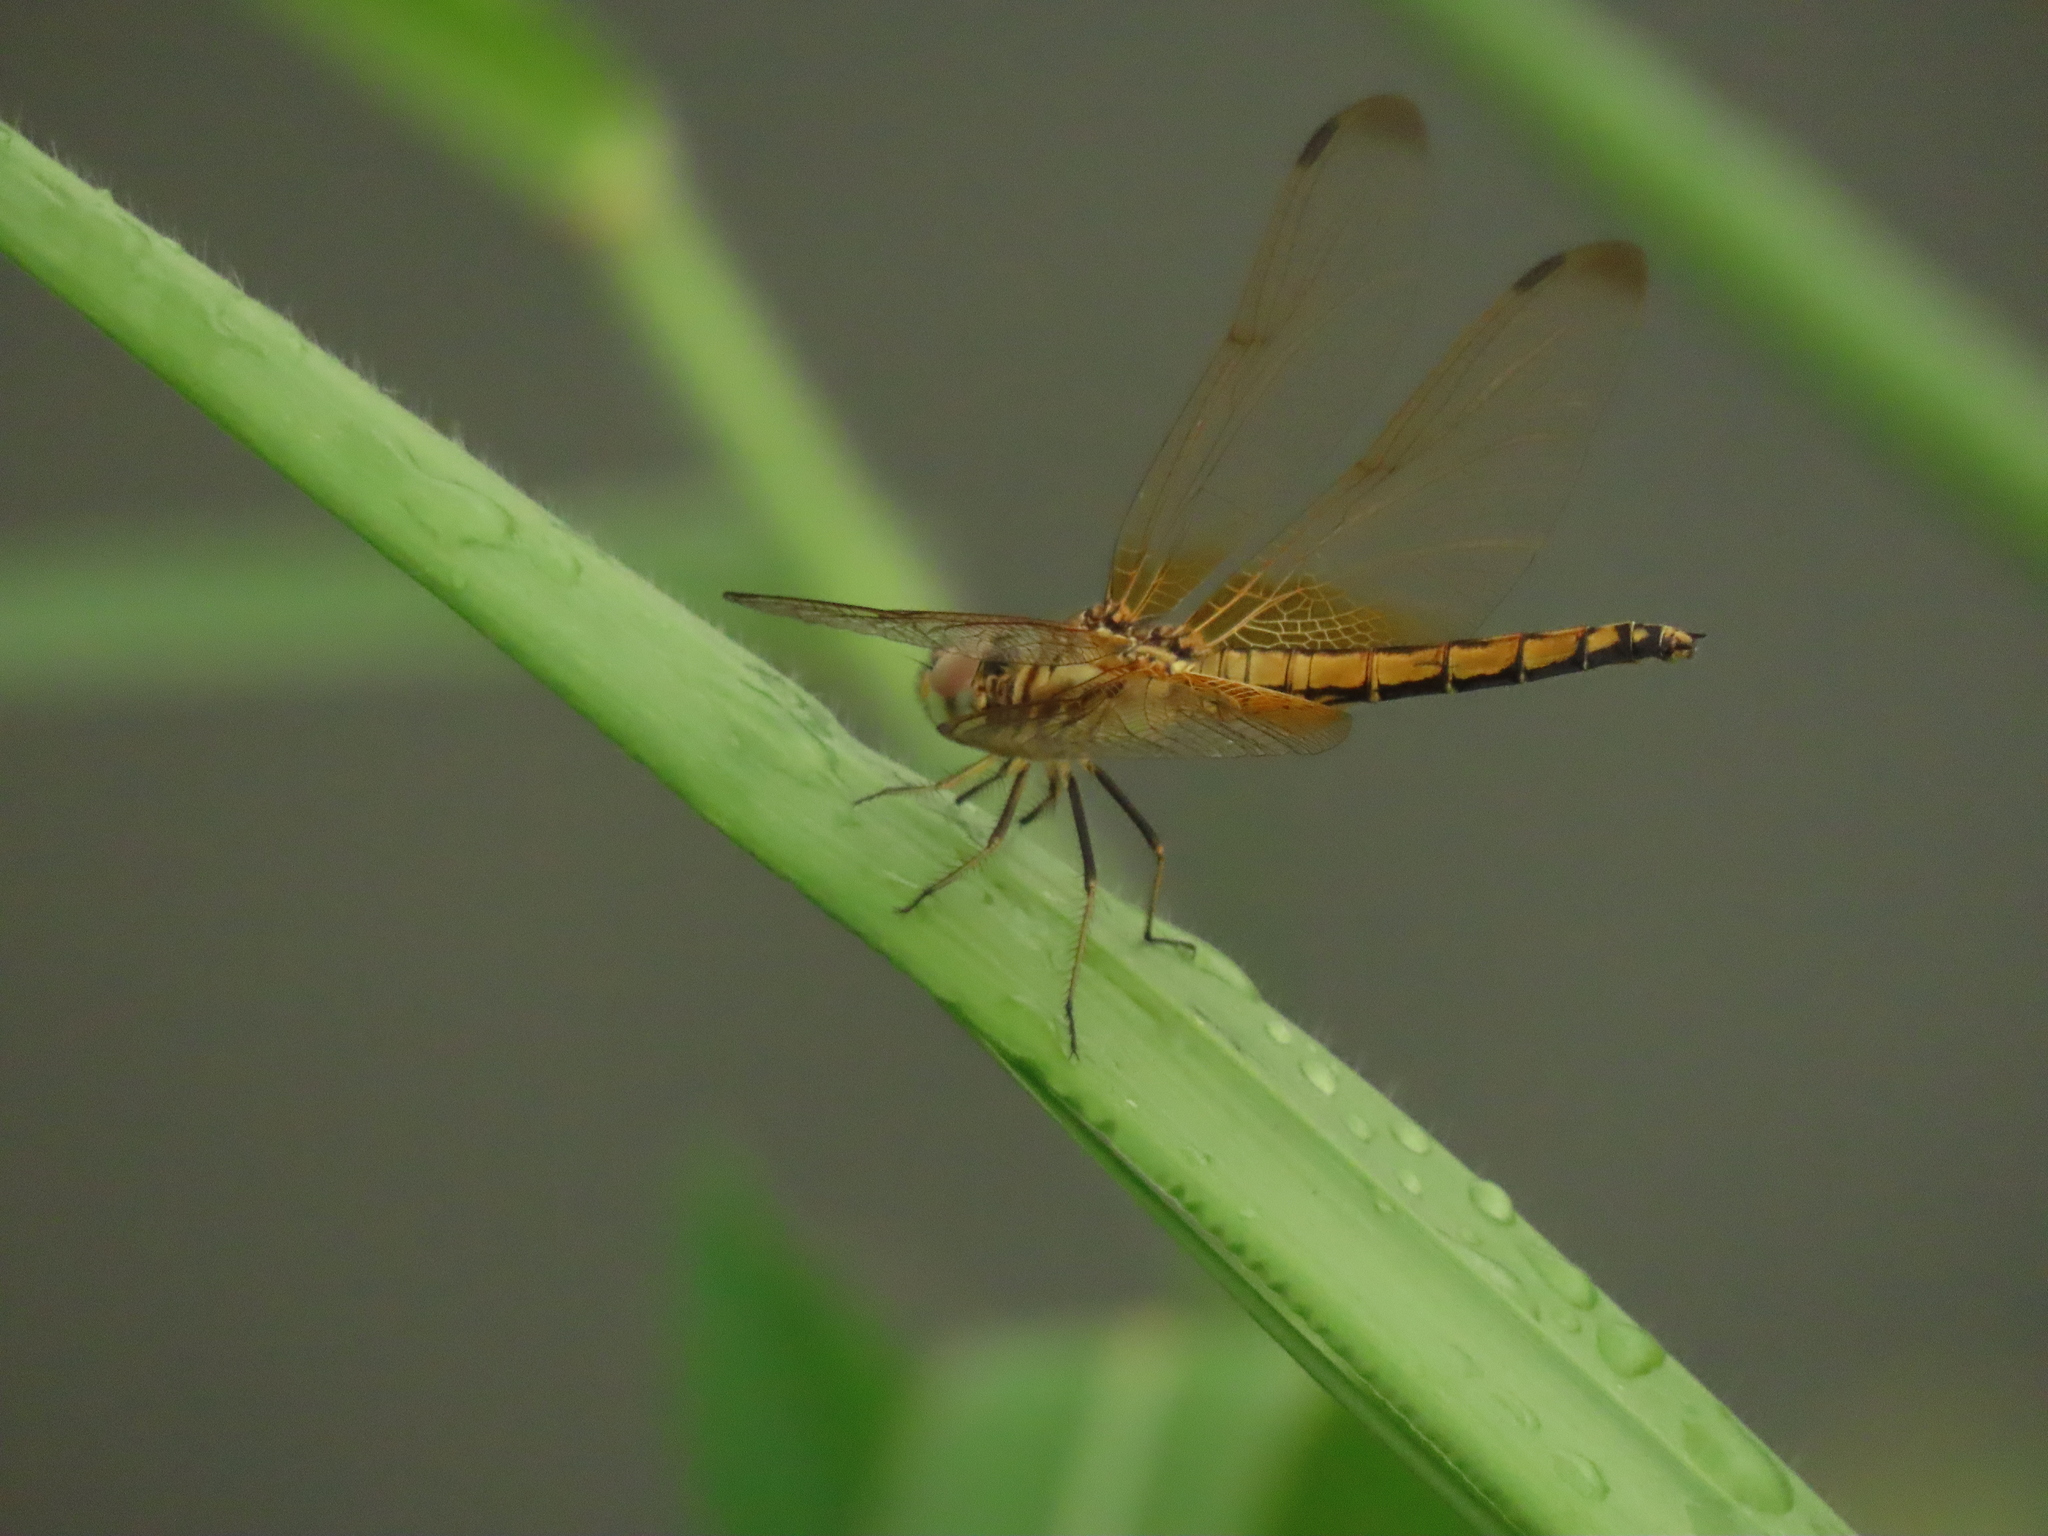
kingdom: Animalia
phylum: Arthropoda
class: Insecta
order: Odonata
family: Libellulidae
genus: Trithemis
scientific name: Trithemis aurora
